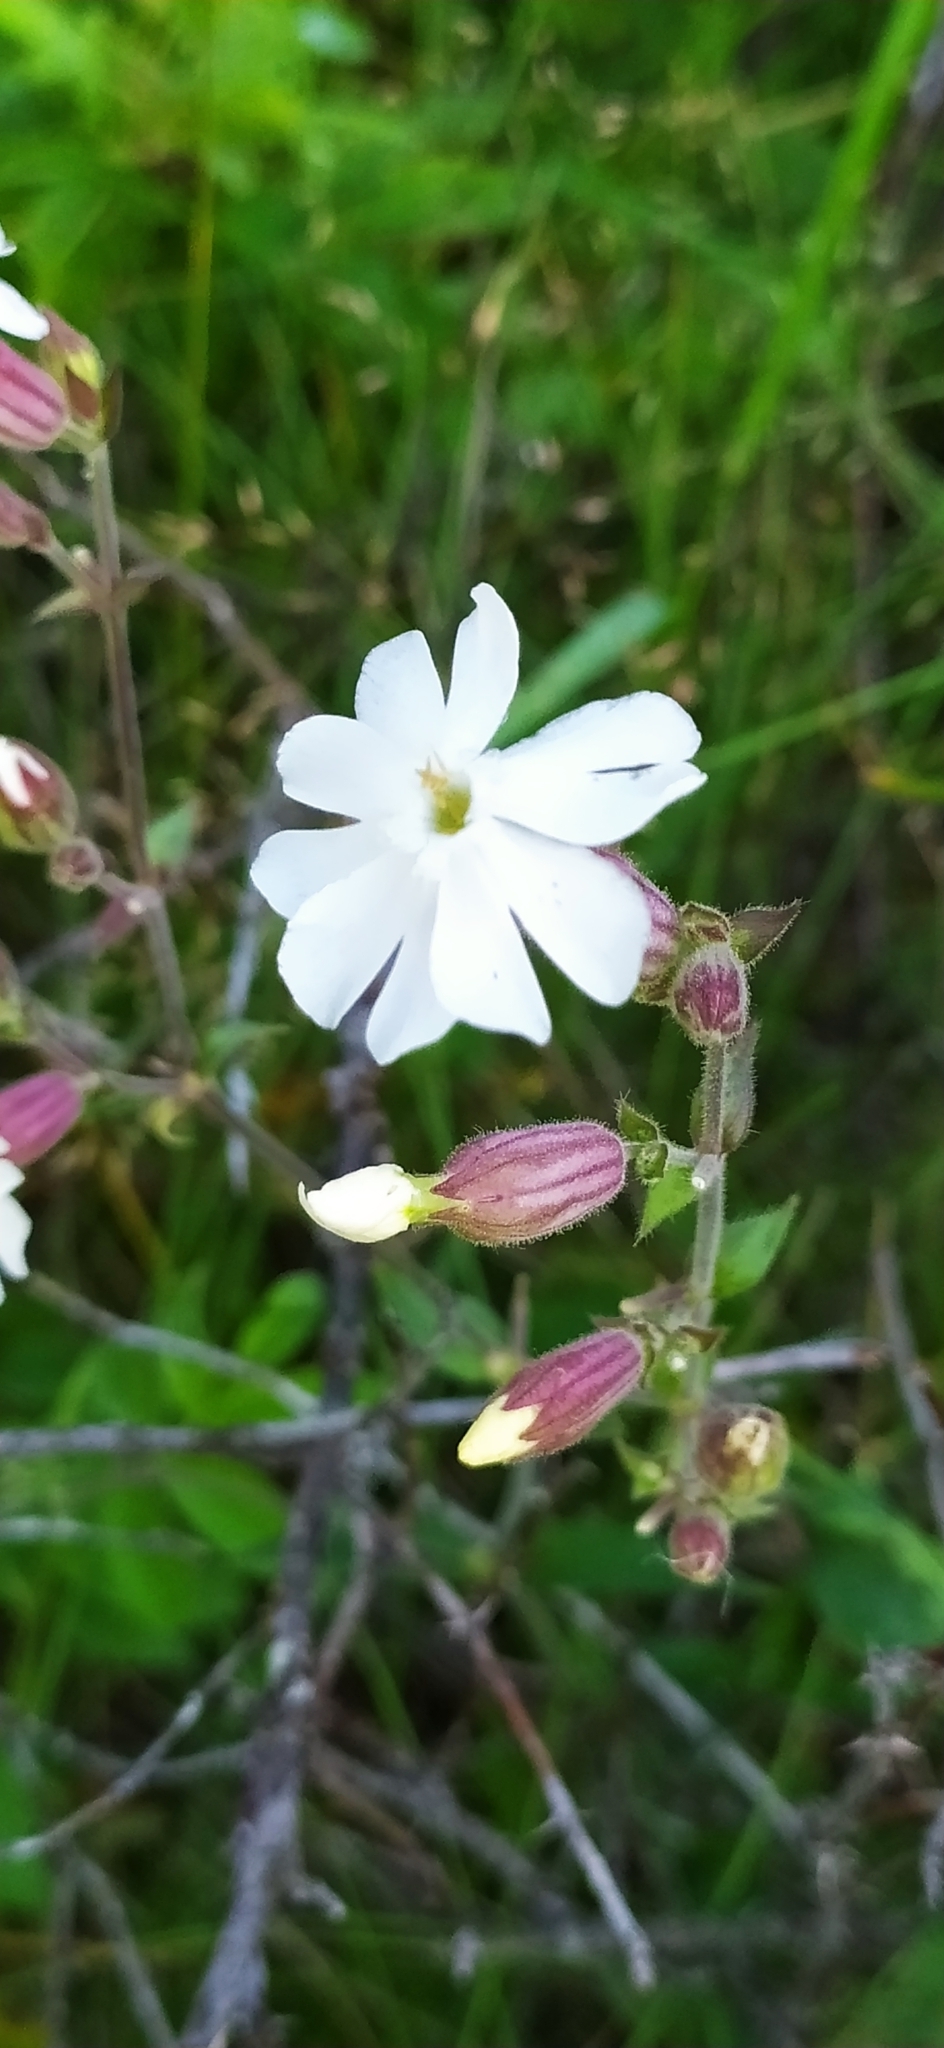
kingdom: Plantae
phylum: Tracheophyta
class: Magnoliopsida
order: Caryophyllales
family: Caryophyllaceae
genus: Silene
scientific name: Silene latifolia
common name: White campion
